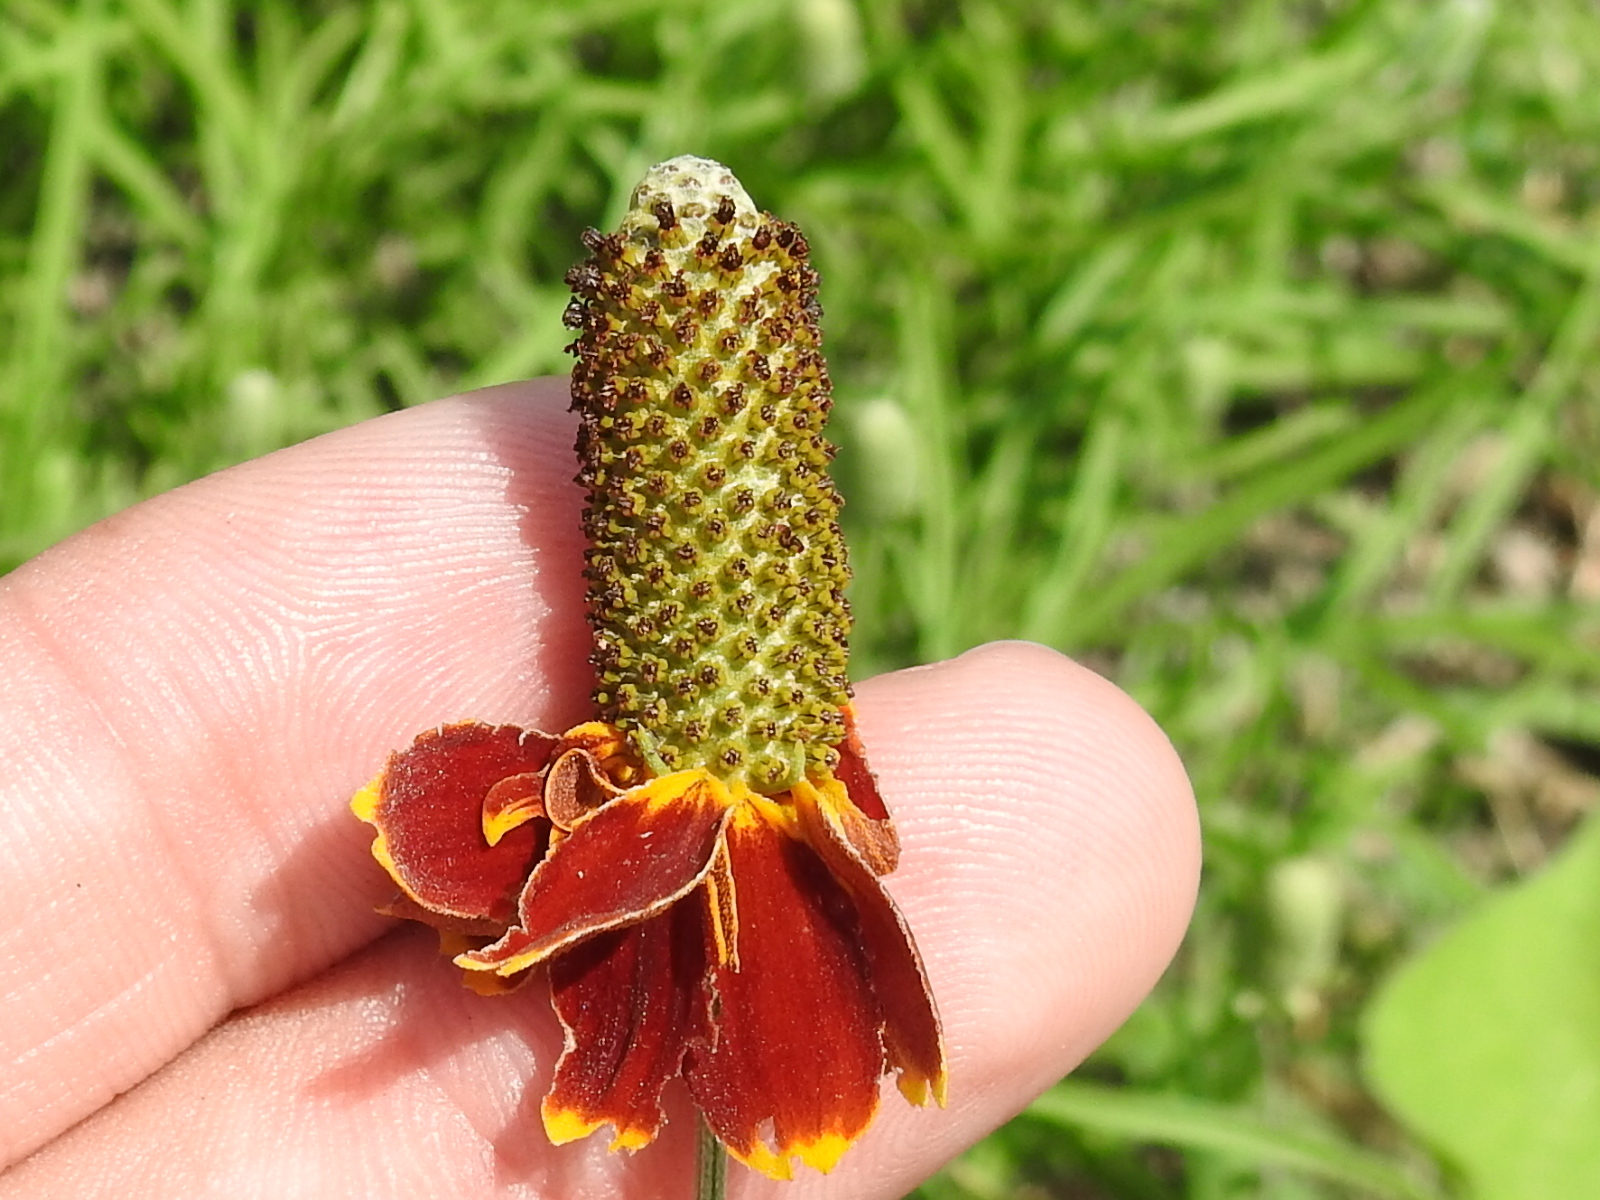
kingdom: Plantae
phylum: Tracheophyta
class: Magnoliopsida
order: Asterales
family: Asteraceae
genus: Ratibida
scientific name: Ratibida columnifera
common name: Prairie coneflower
